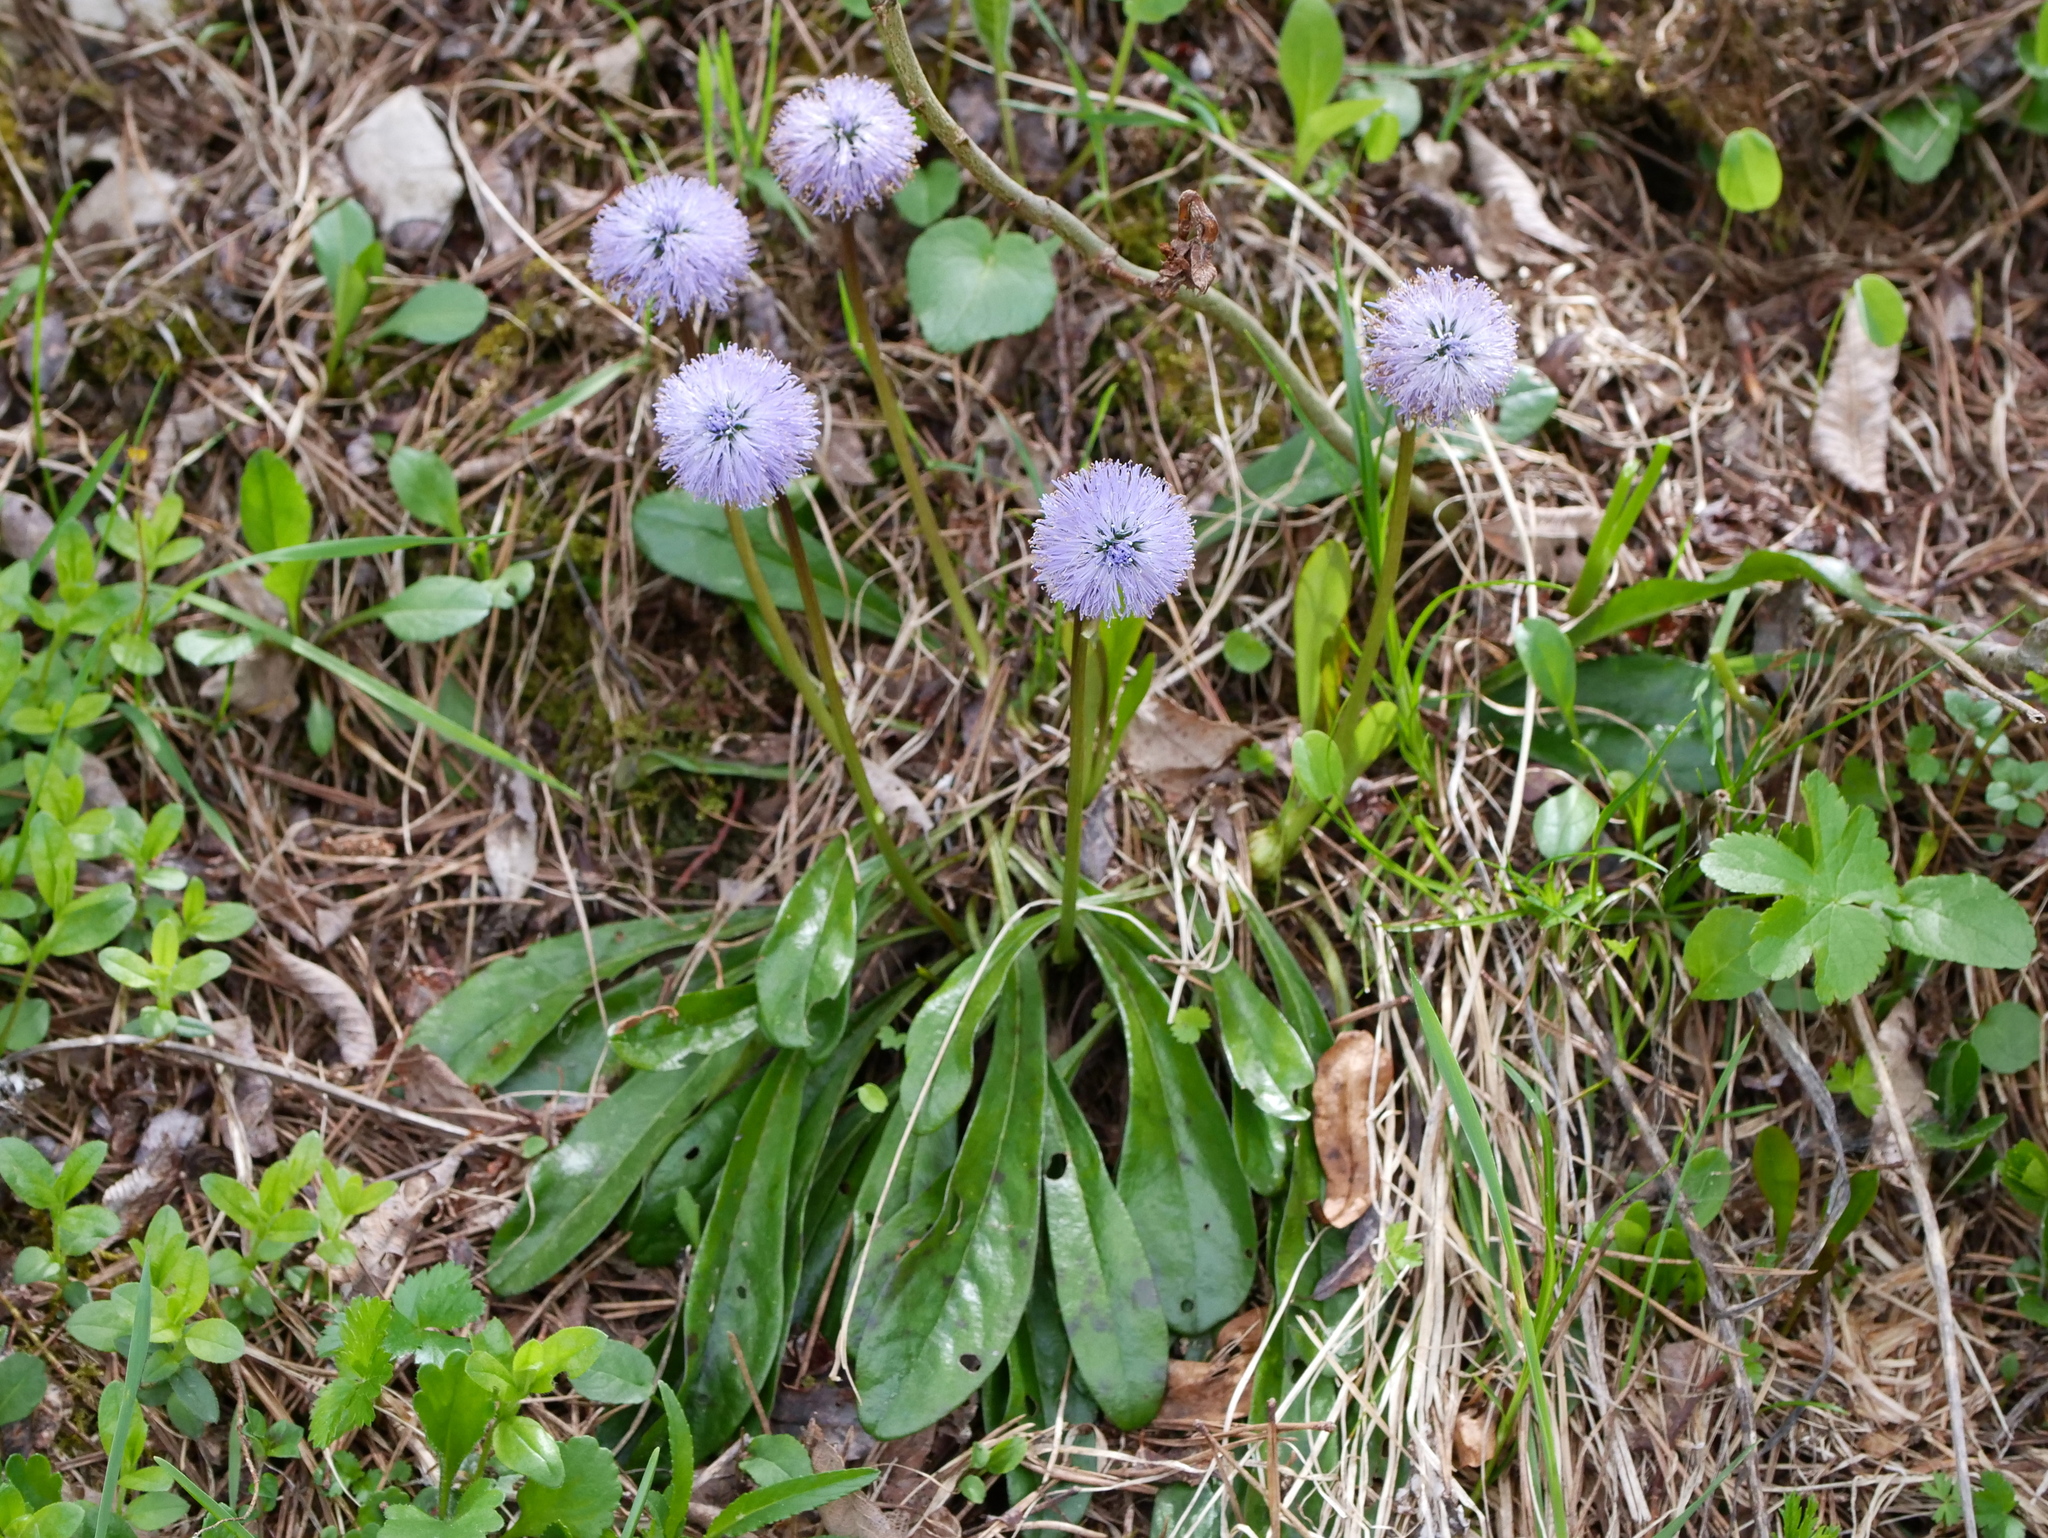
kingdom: Plantae
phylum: Tracheophyta
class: Magnoliopsida
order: Lamiales
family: Plantaginaceae
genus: Globularia
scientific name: Globularia nudicaulis
